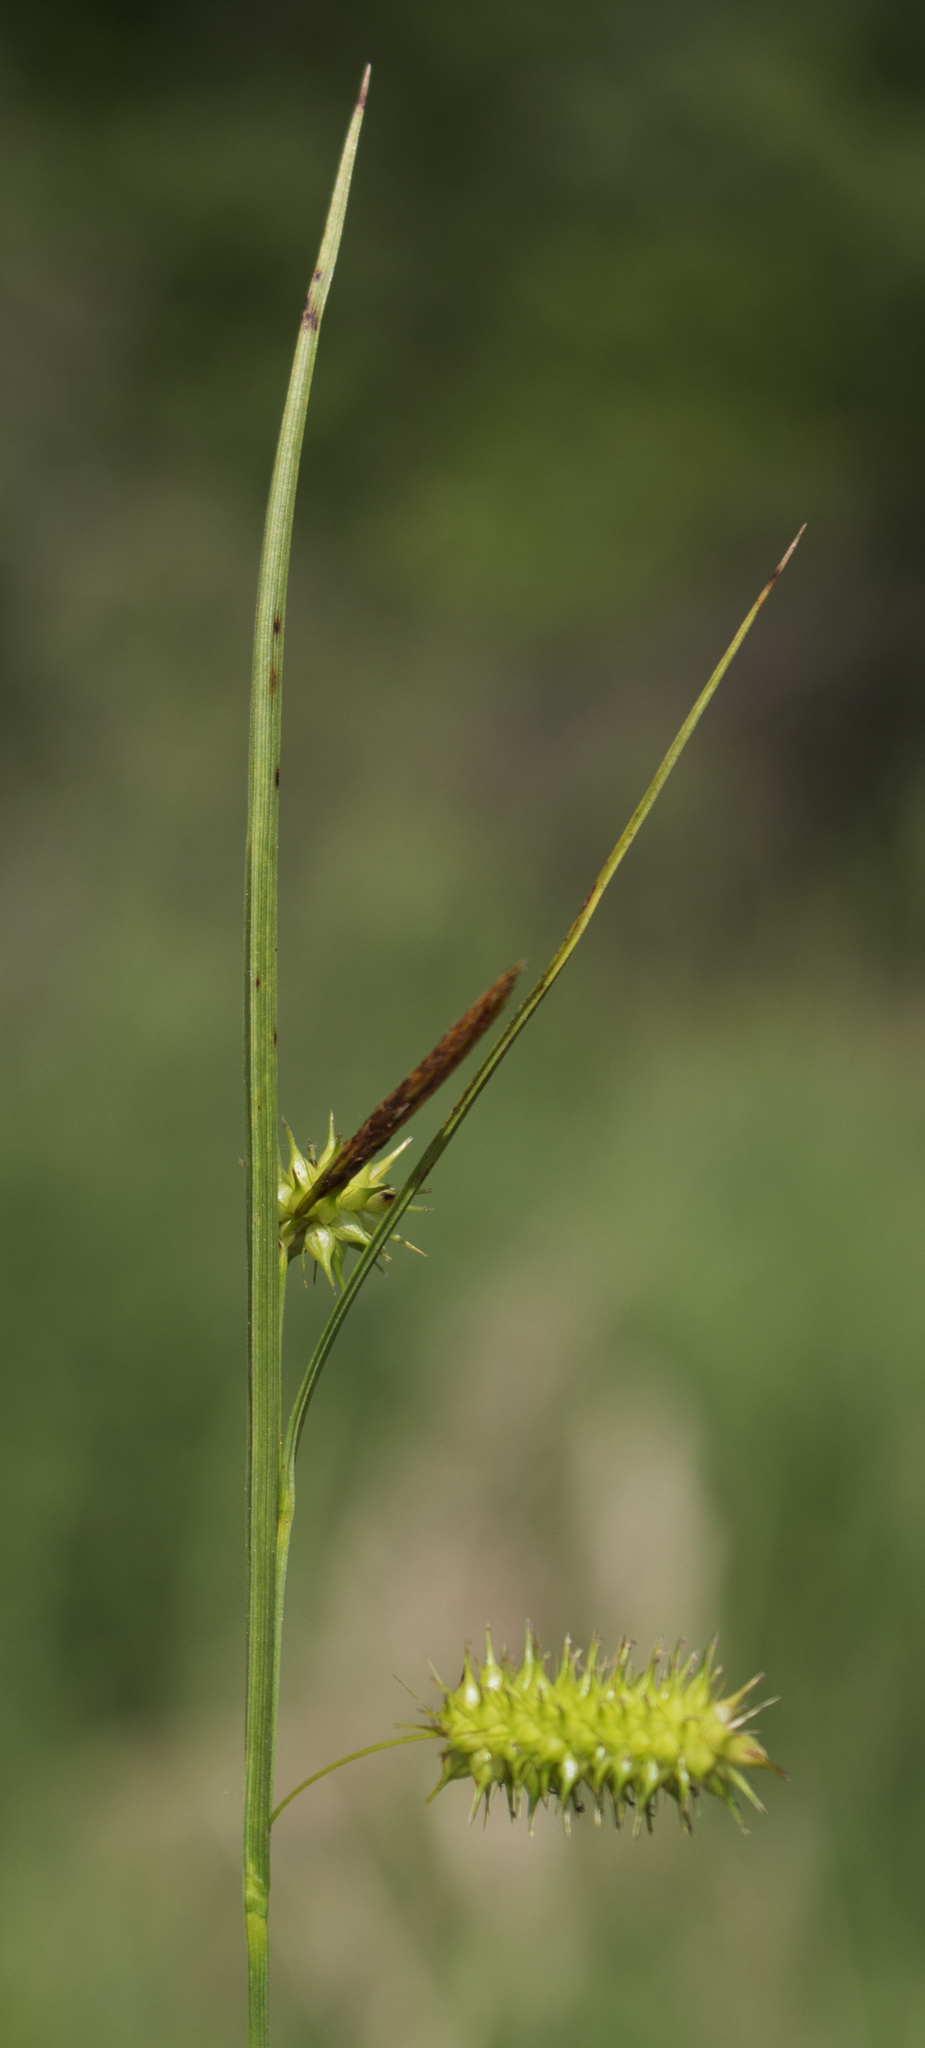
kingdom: Plantae
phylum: Tracheophyta
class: Liliopsida
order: Poales
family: Cyperaceae
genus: Carex
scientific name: Carex hystericina
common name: Bottlebrush sedge
